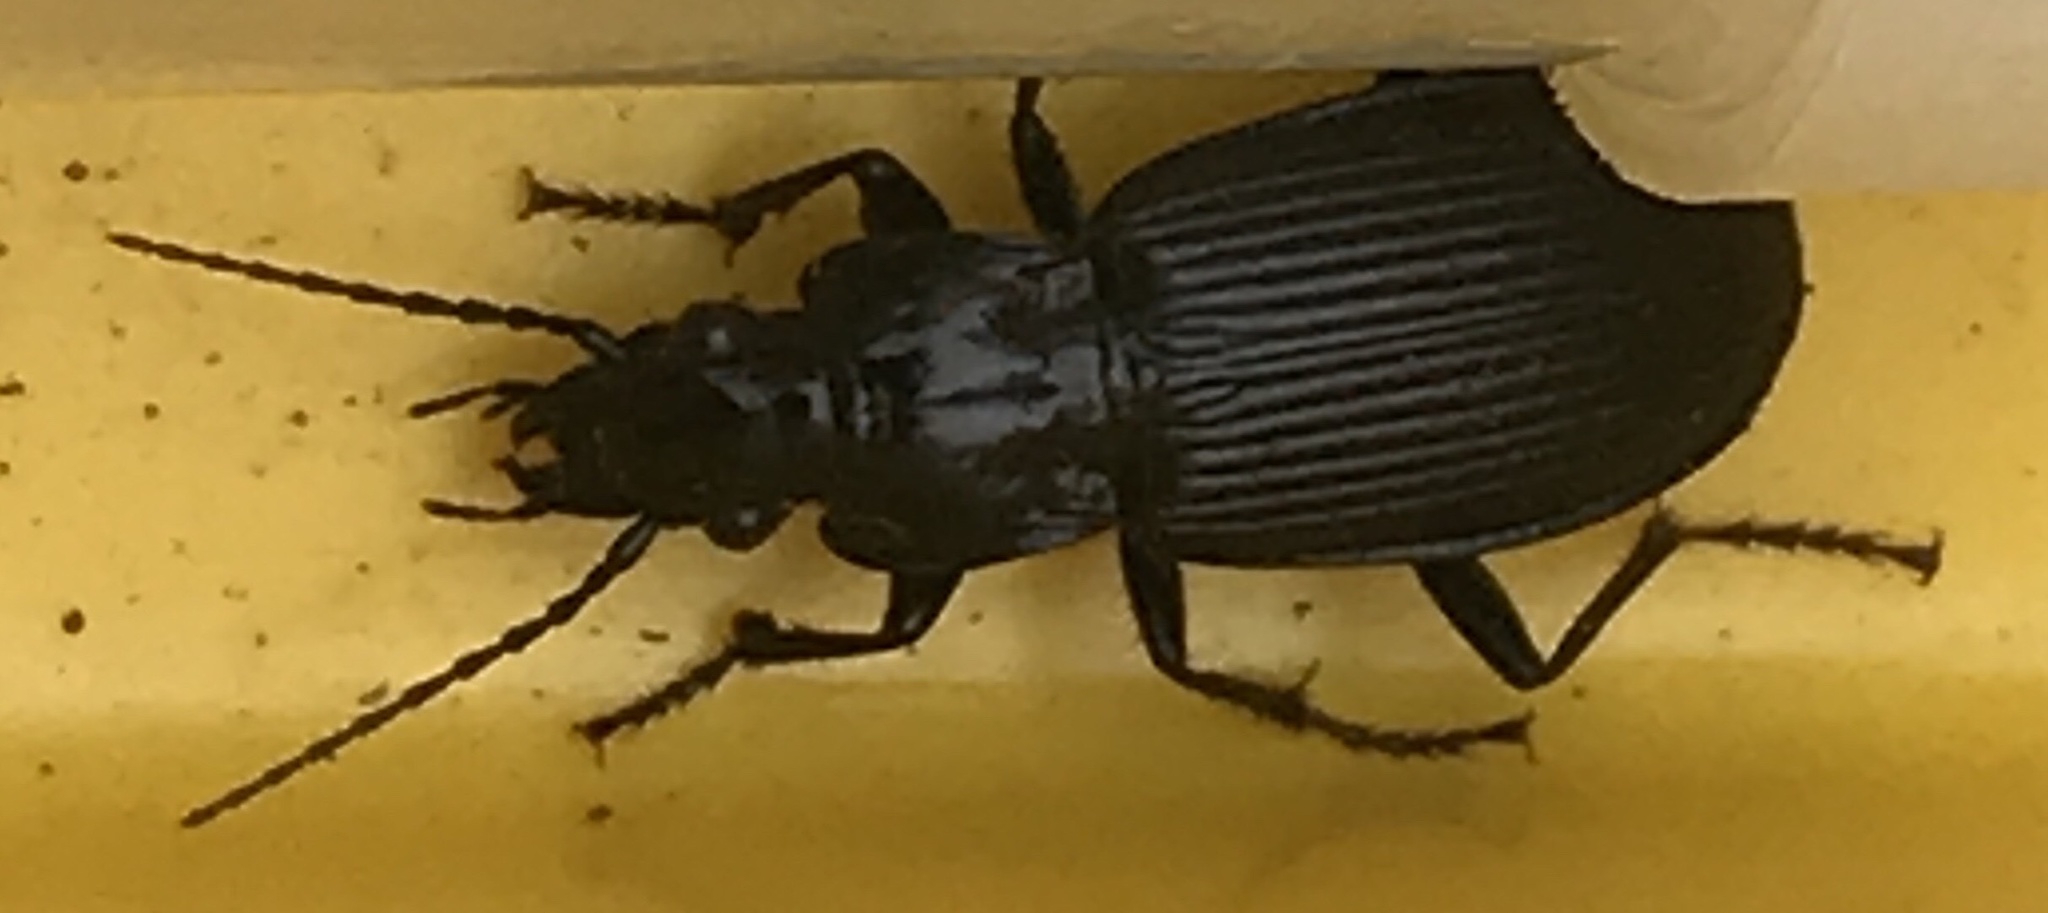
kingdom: Animalia
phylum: Arthropoda
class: Insecta
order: Coleoptera
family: Carabidae
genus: Pterostichus
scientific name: Pterostichus niger
